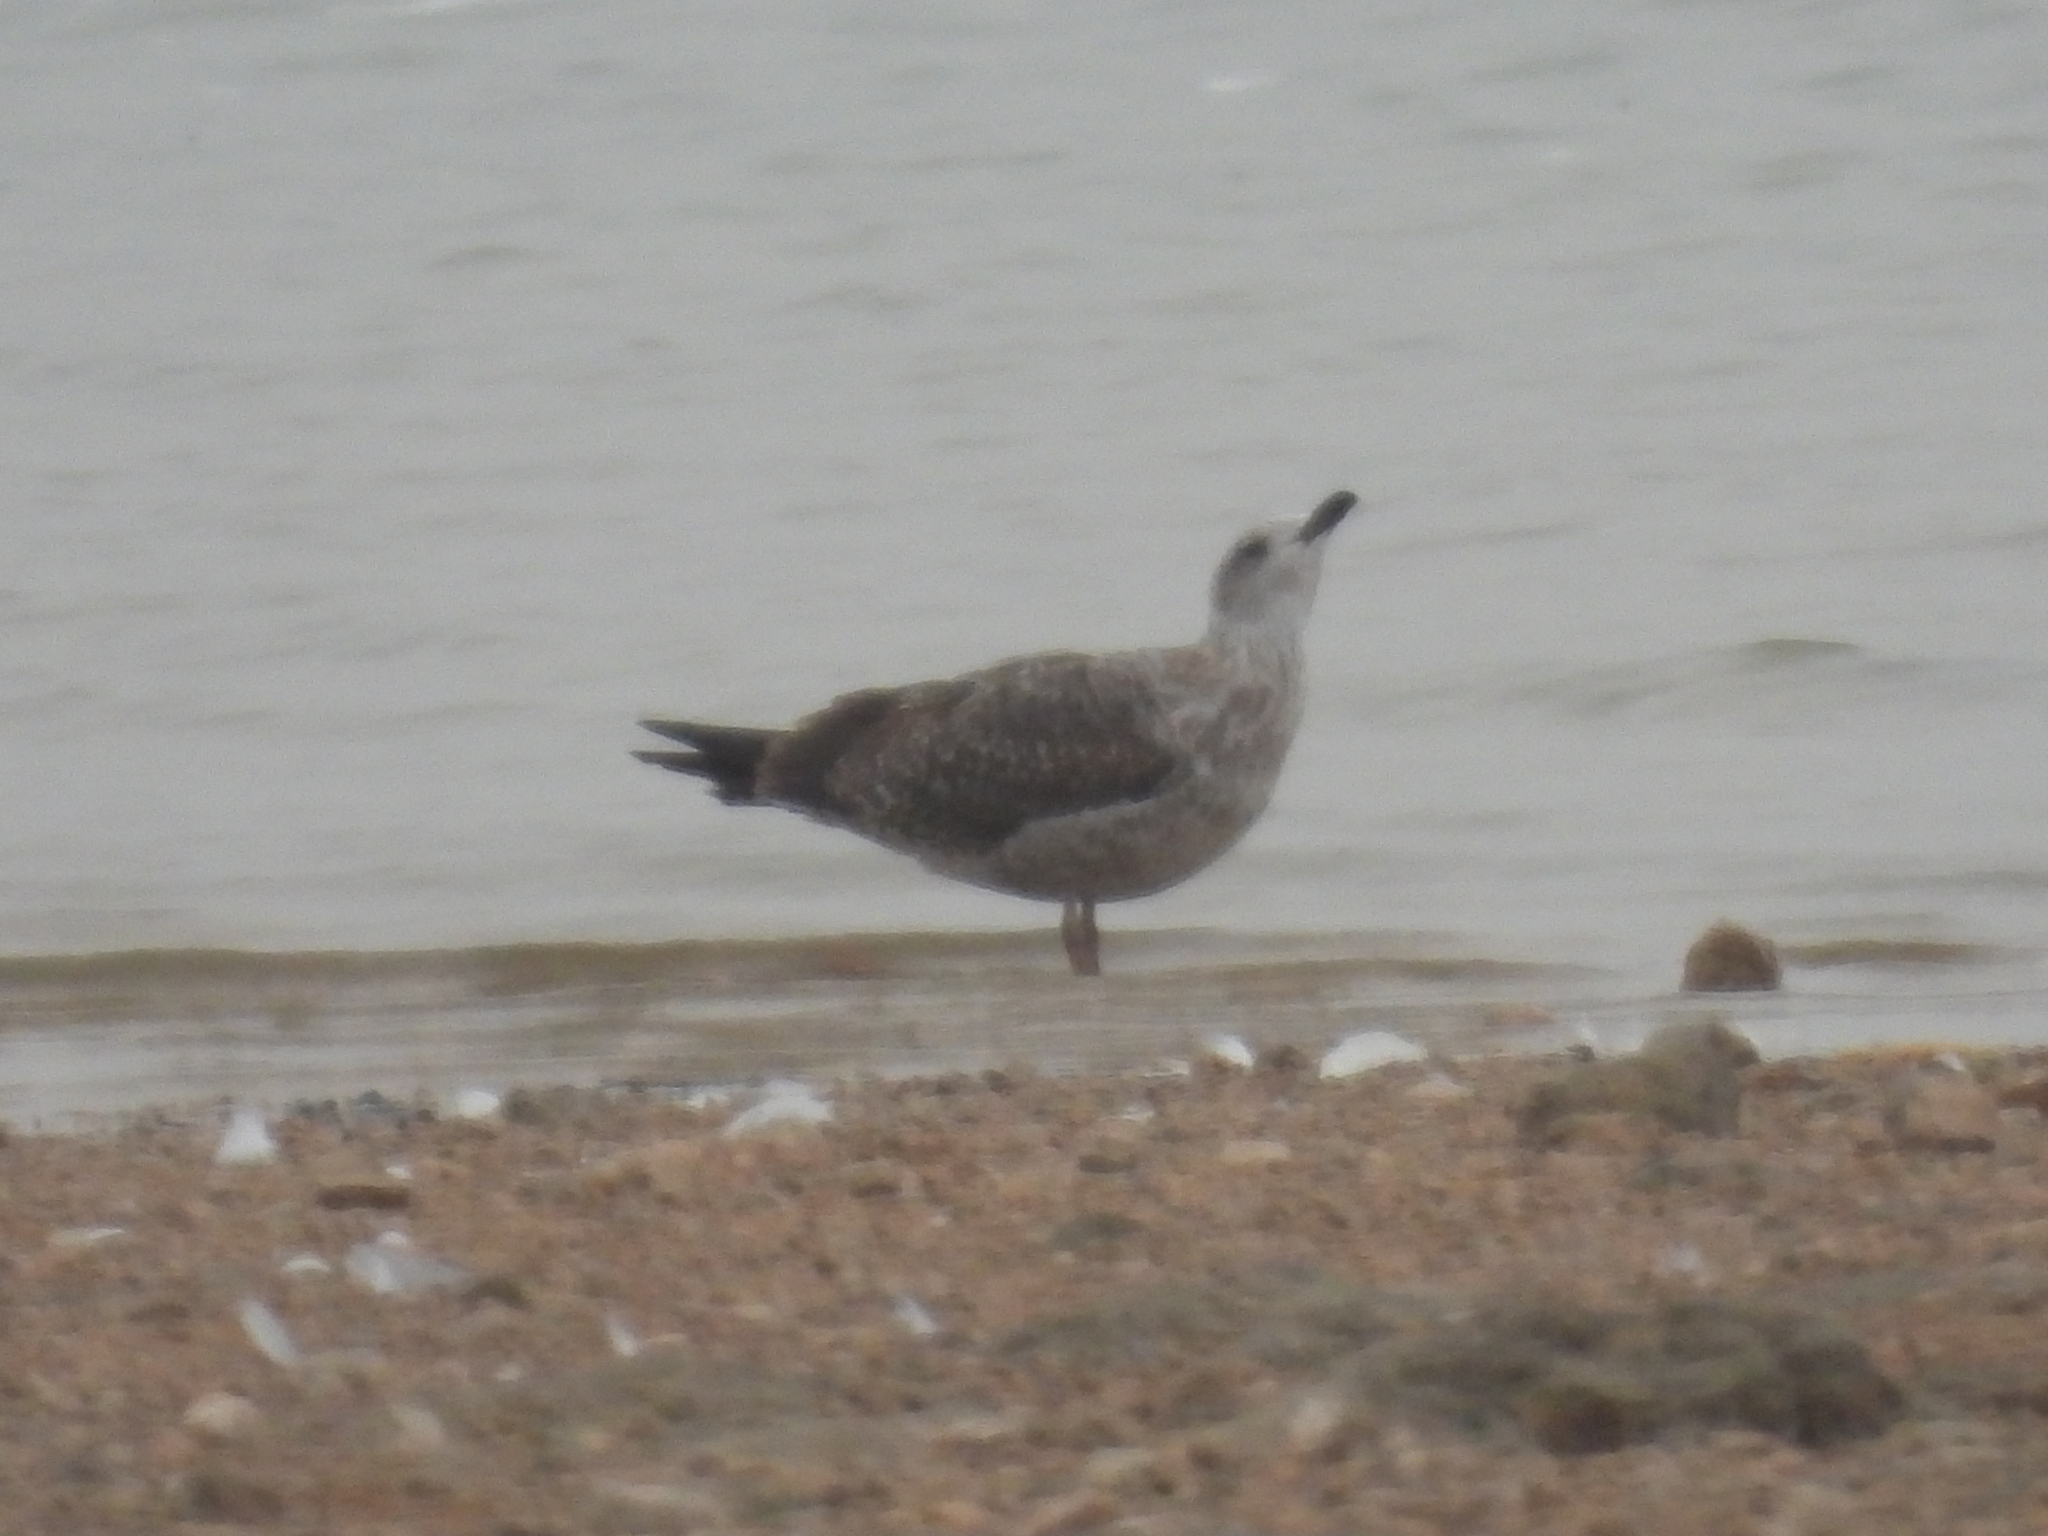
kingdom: Animalia
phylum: Chordata
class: Aves
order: Charadriiformes
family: Laridae
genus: Larus
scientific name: Larus fuscus
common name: Lesser black-backed gull
